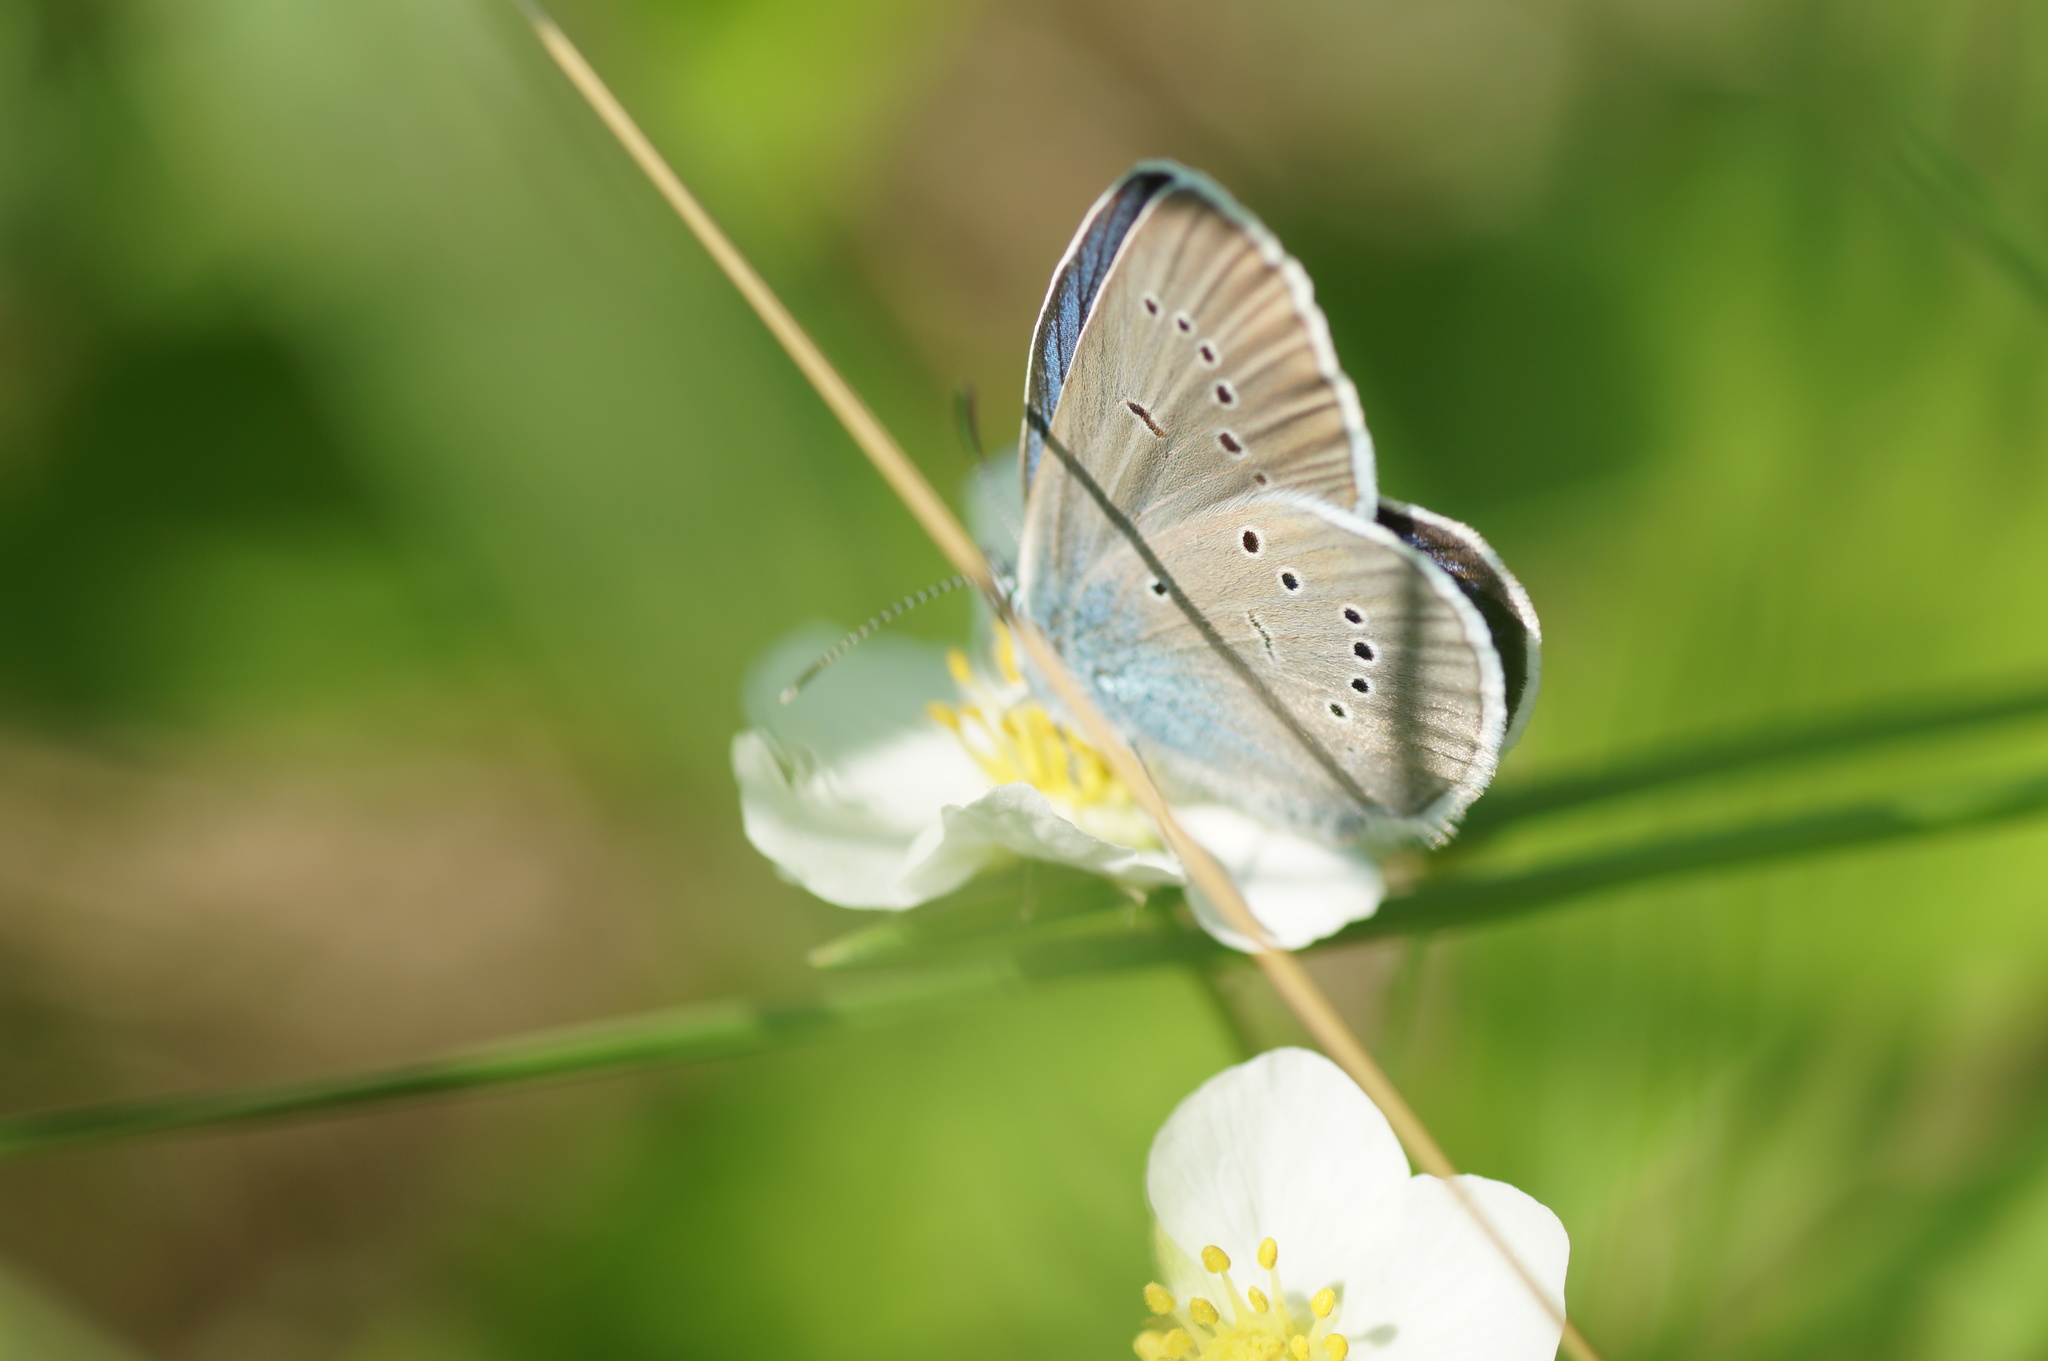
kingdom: Animalia
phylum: Arthropoda
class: Insecta
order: Lepidoptera
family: Lycaenidae
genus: Cyaniris
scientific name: Cyaniris semiargus
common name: Mazarine blue
